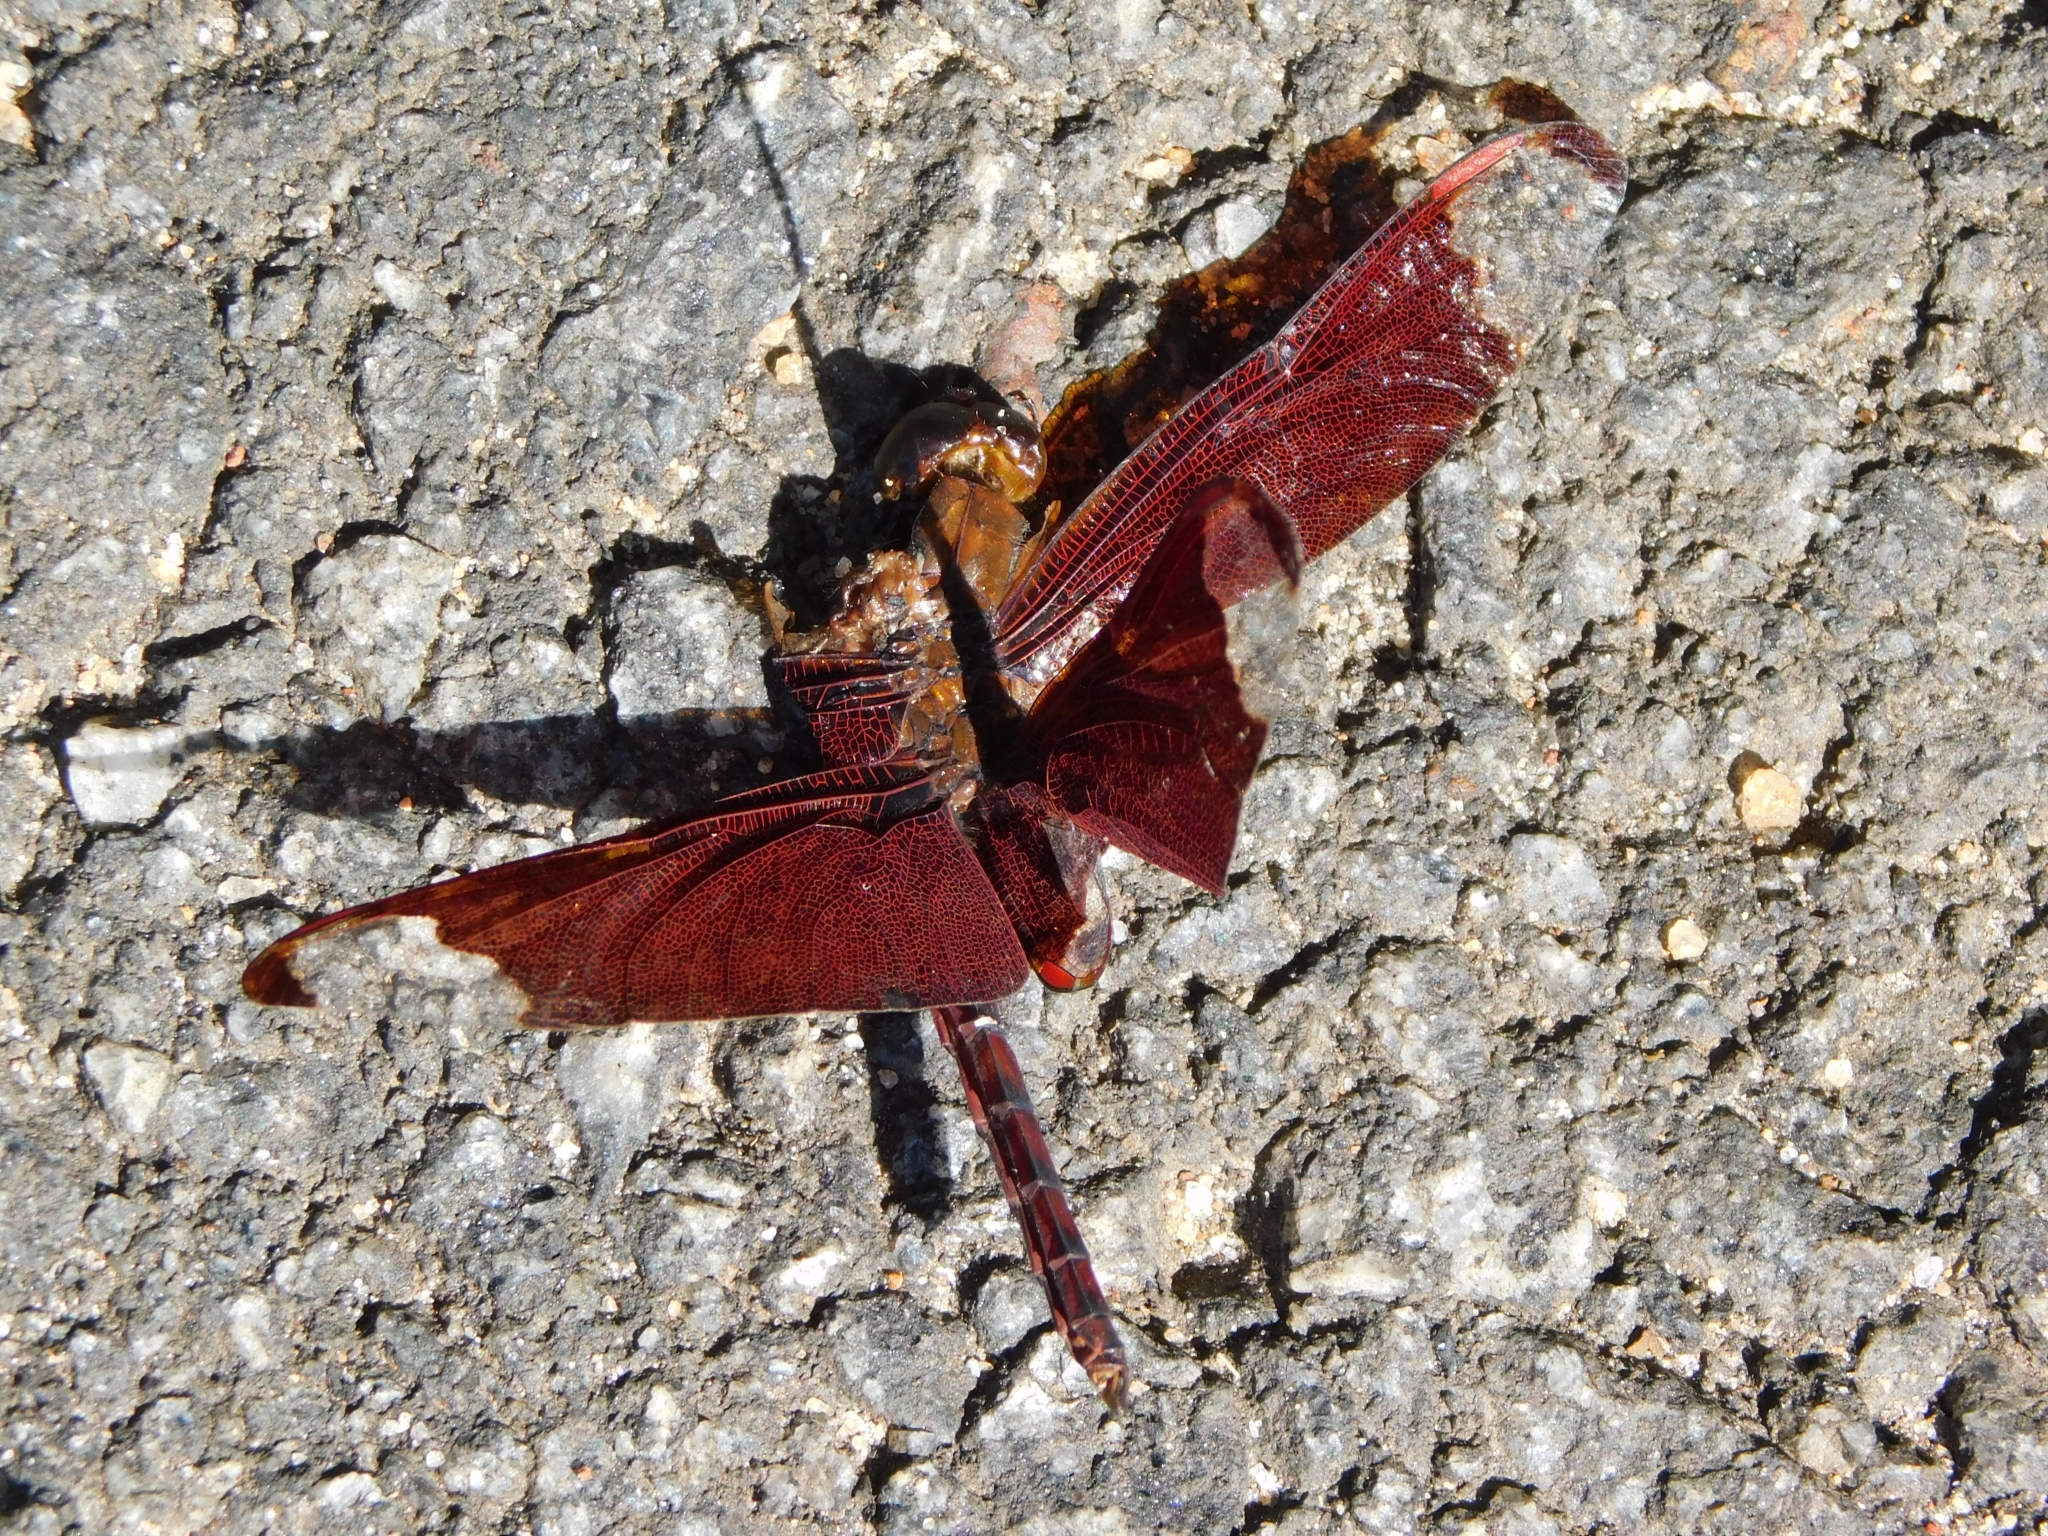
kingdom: Animalia
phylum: Arthropoda
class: Insecta
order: Odonata
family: Libellulidae
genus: Neurothemis
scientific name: Neurothemis fulvia
